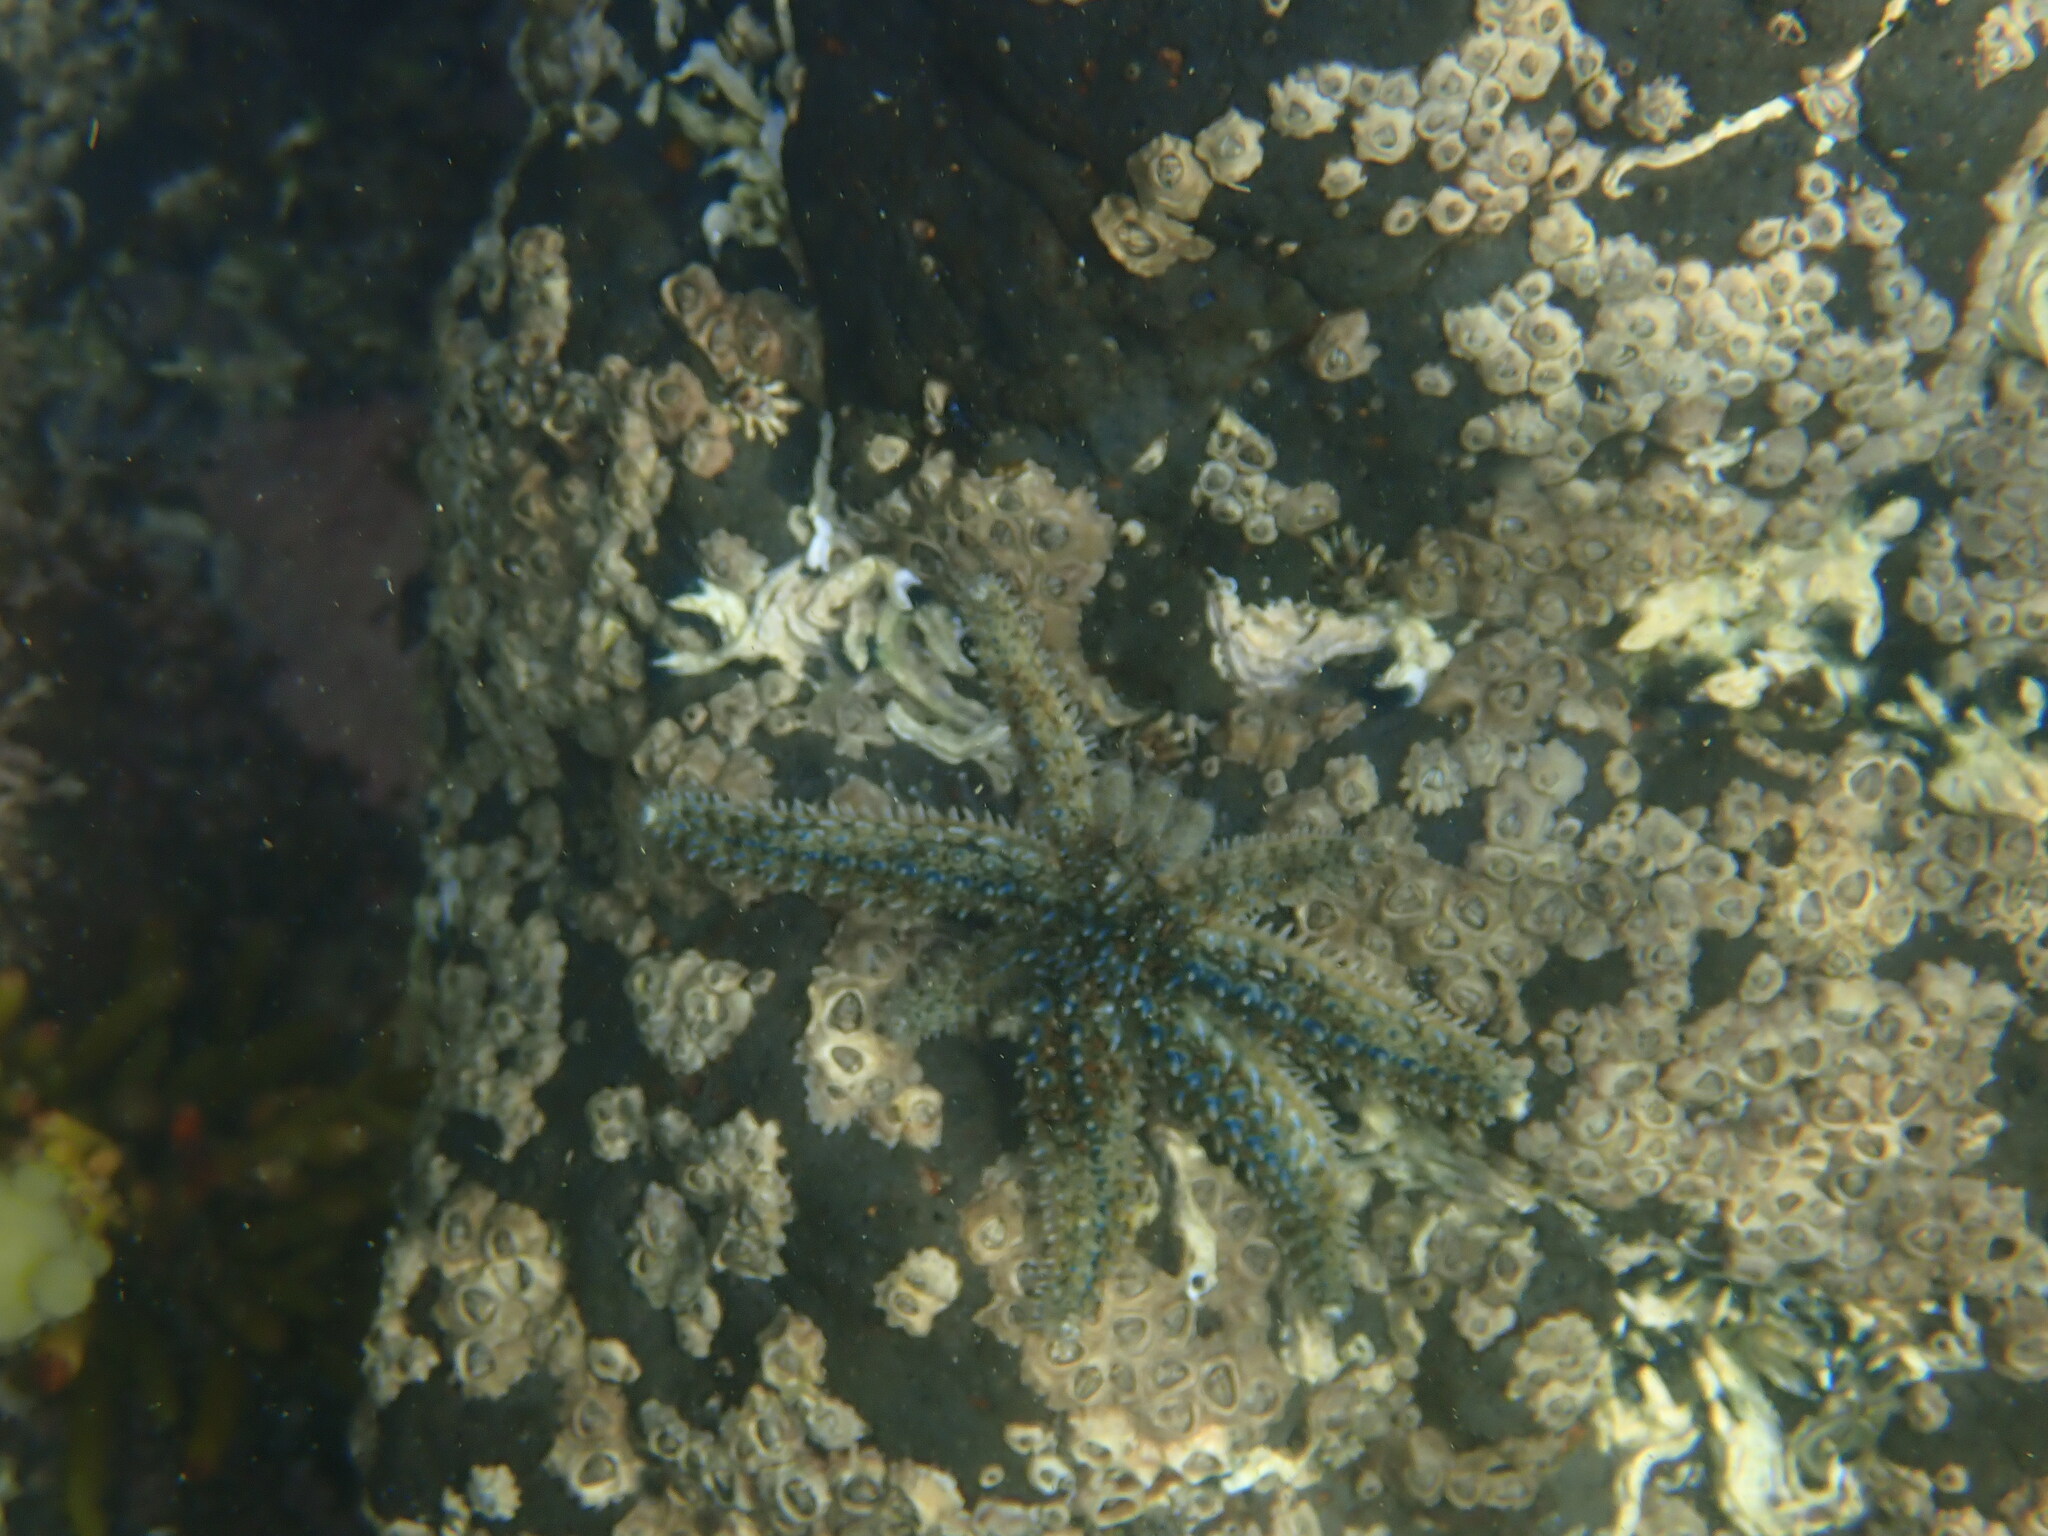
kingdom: Animalia
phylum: Echinodermata
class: Asteroidea
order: Forcipulatida
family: Asteriidae
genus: Coscinasterias
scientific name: Coscinasterias muricata
